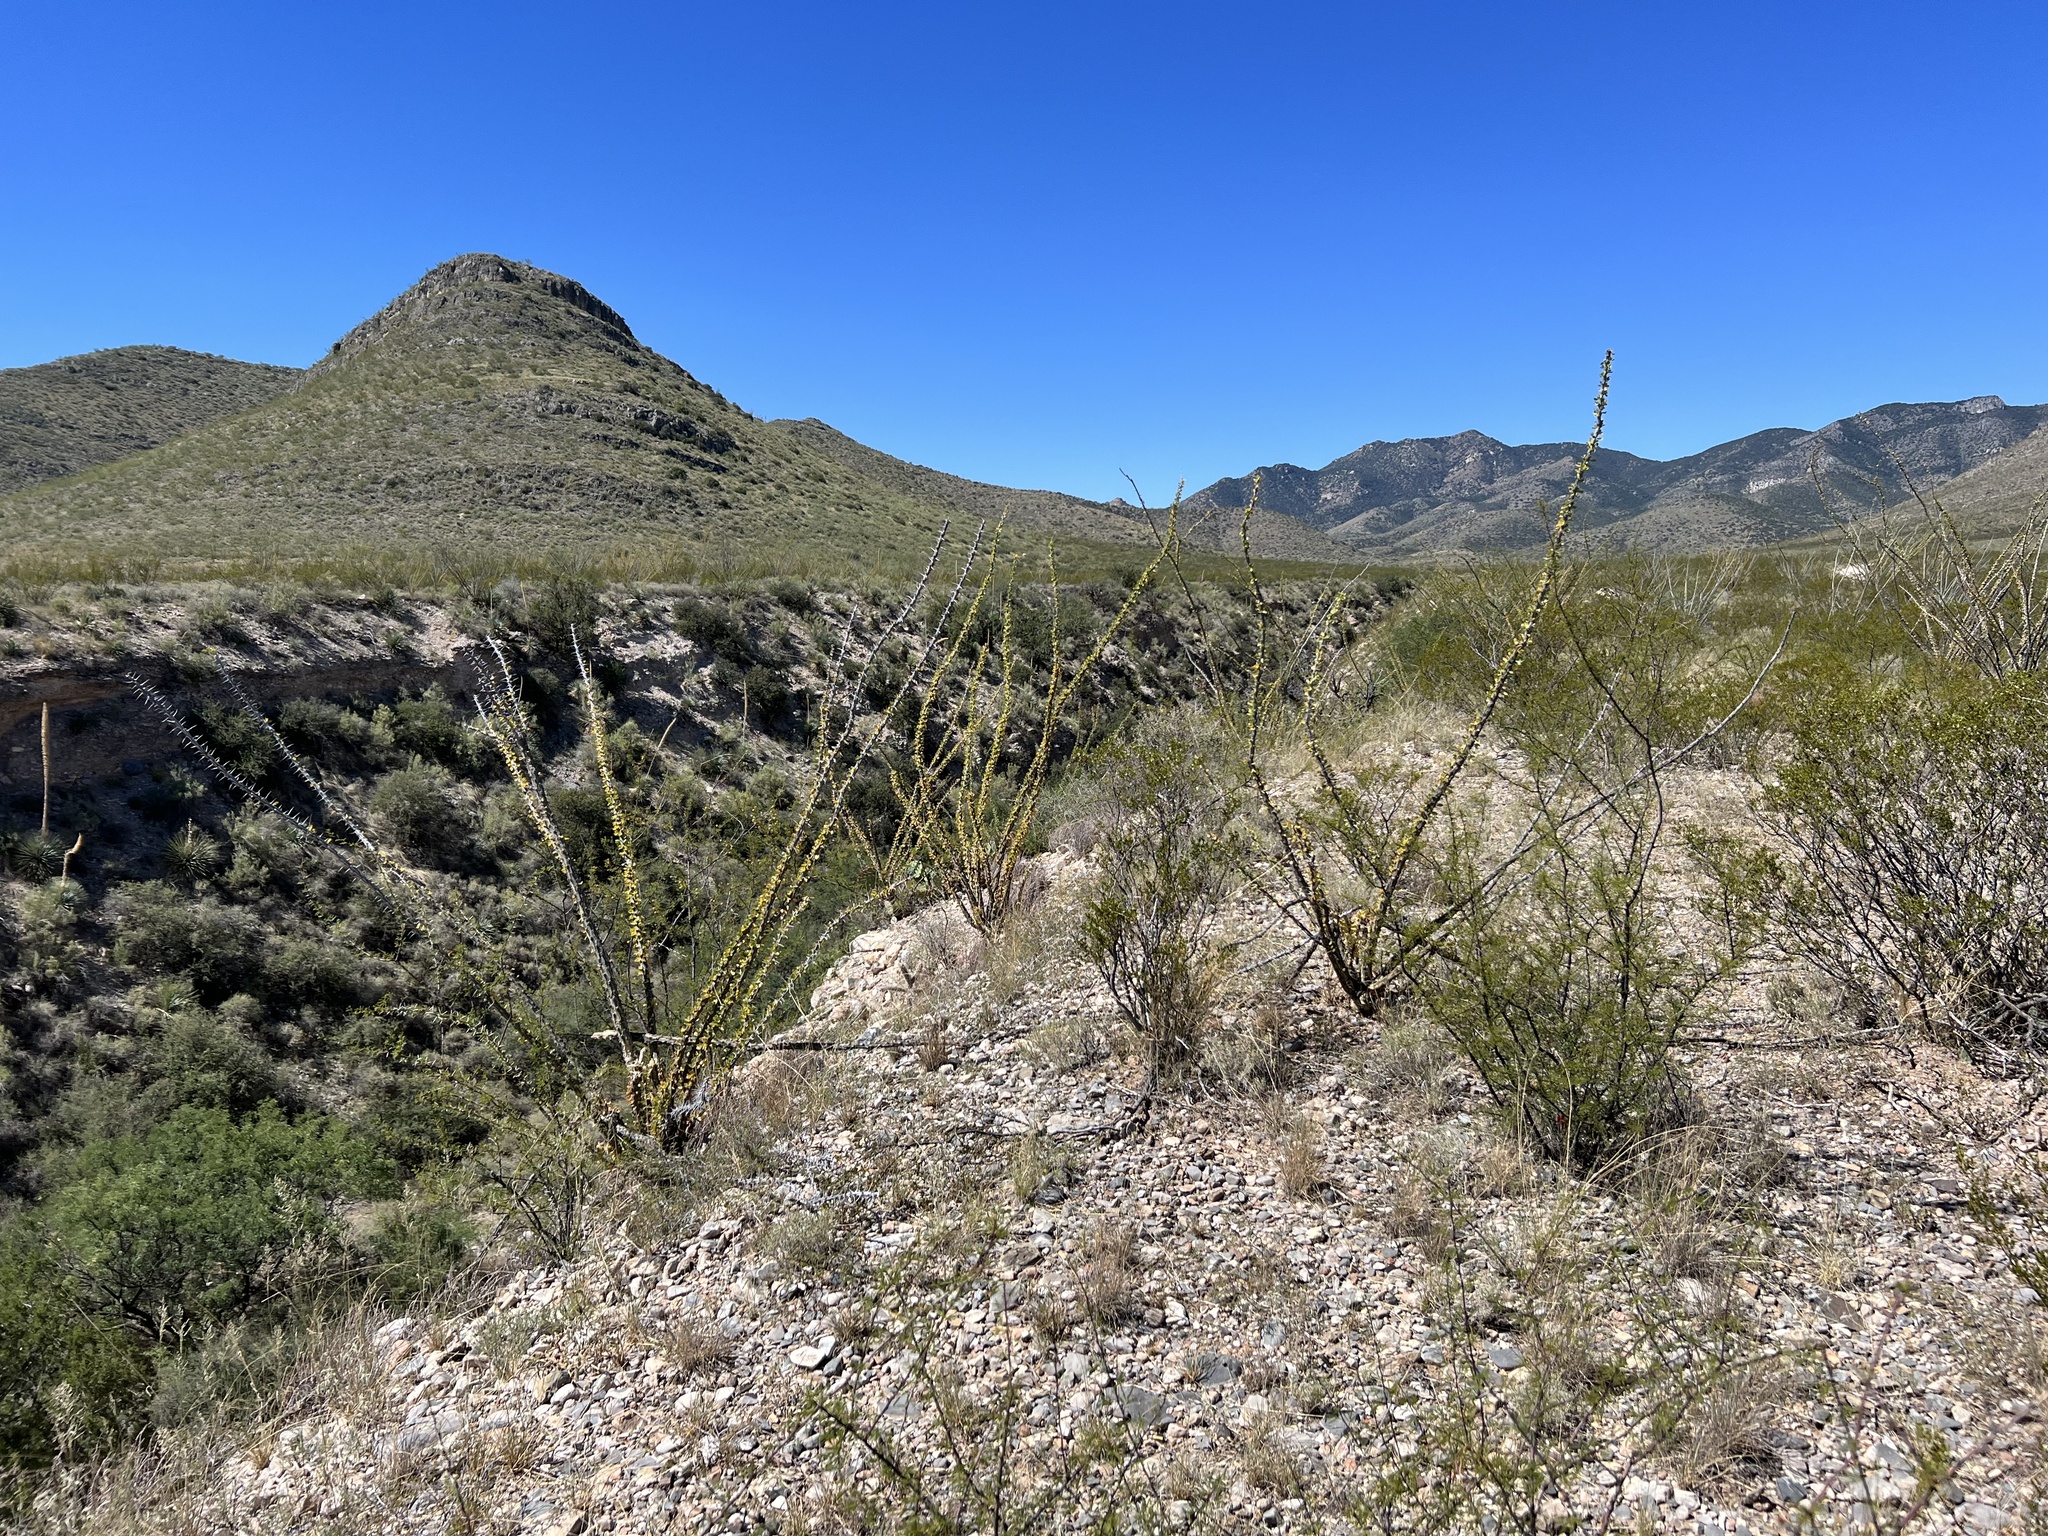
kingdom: Plantae
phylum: Tracheophyta
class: Magnoliopsida
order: Ericales
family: Fouquieriaceae
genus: Fouquieria
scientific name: Fouquieria splendens
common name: Vine-cactus
